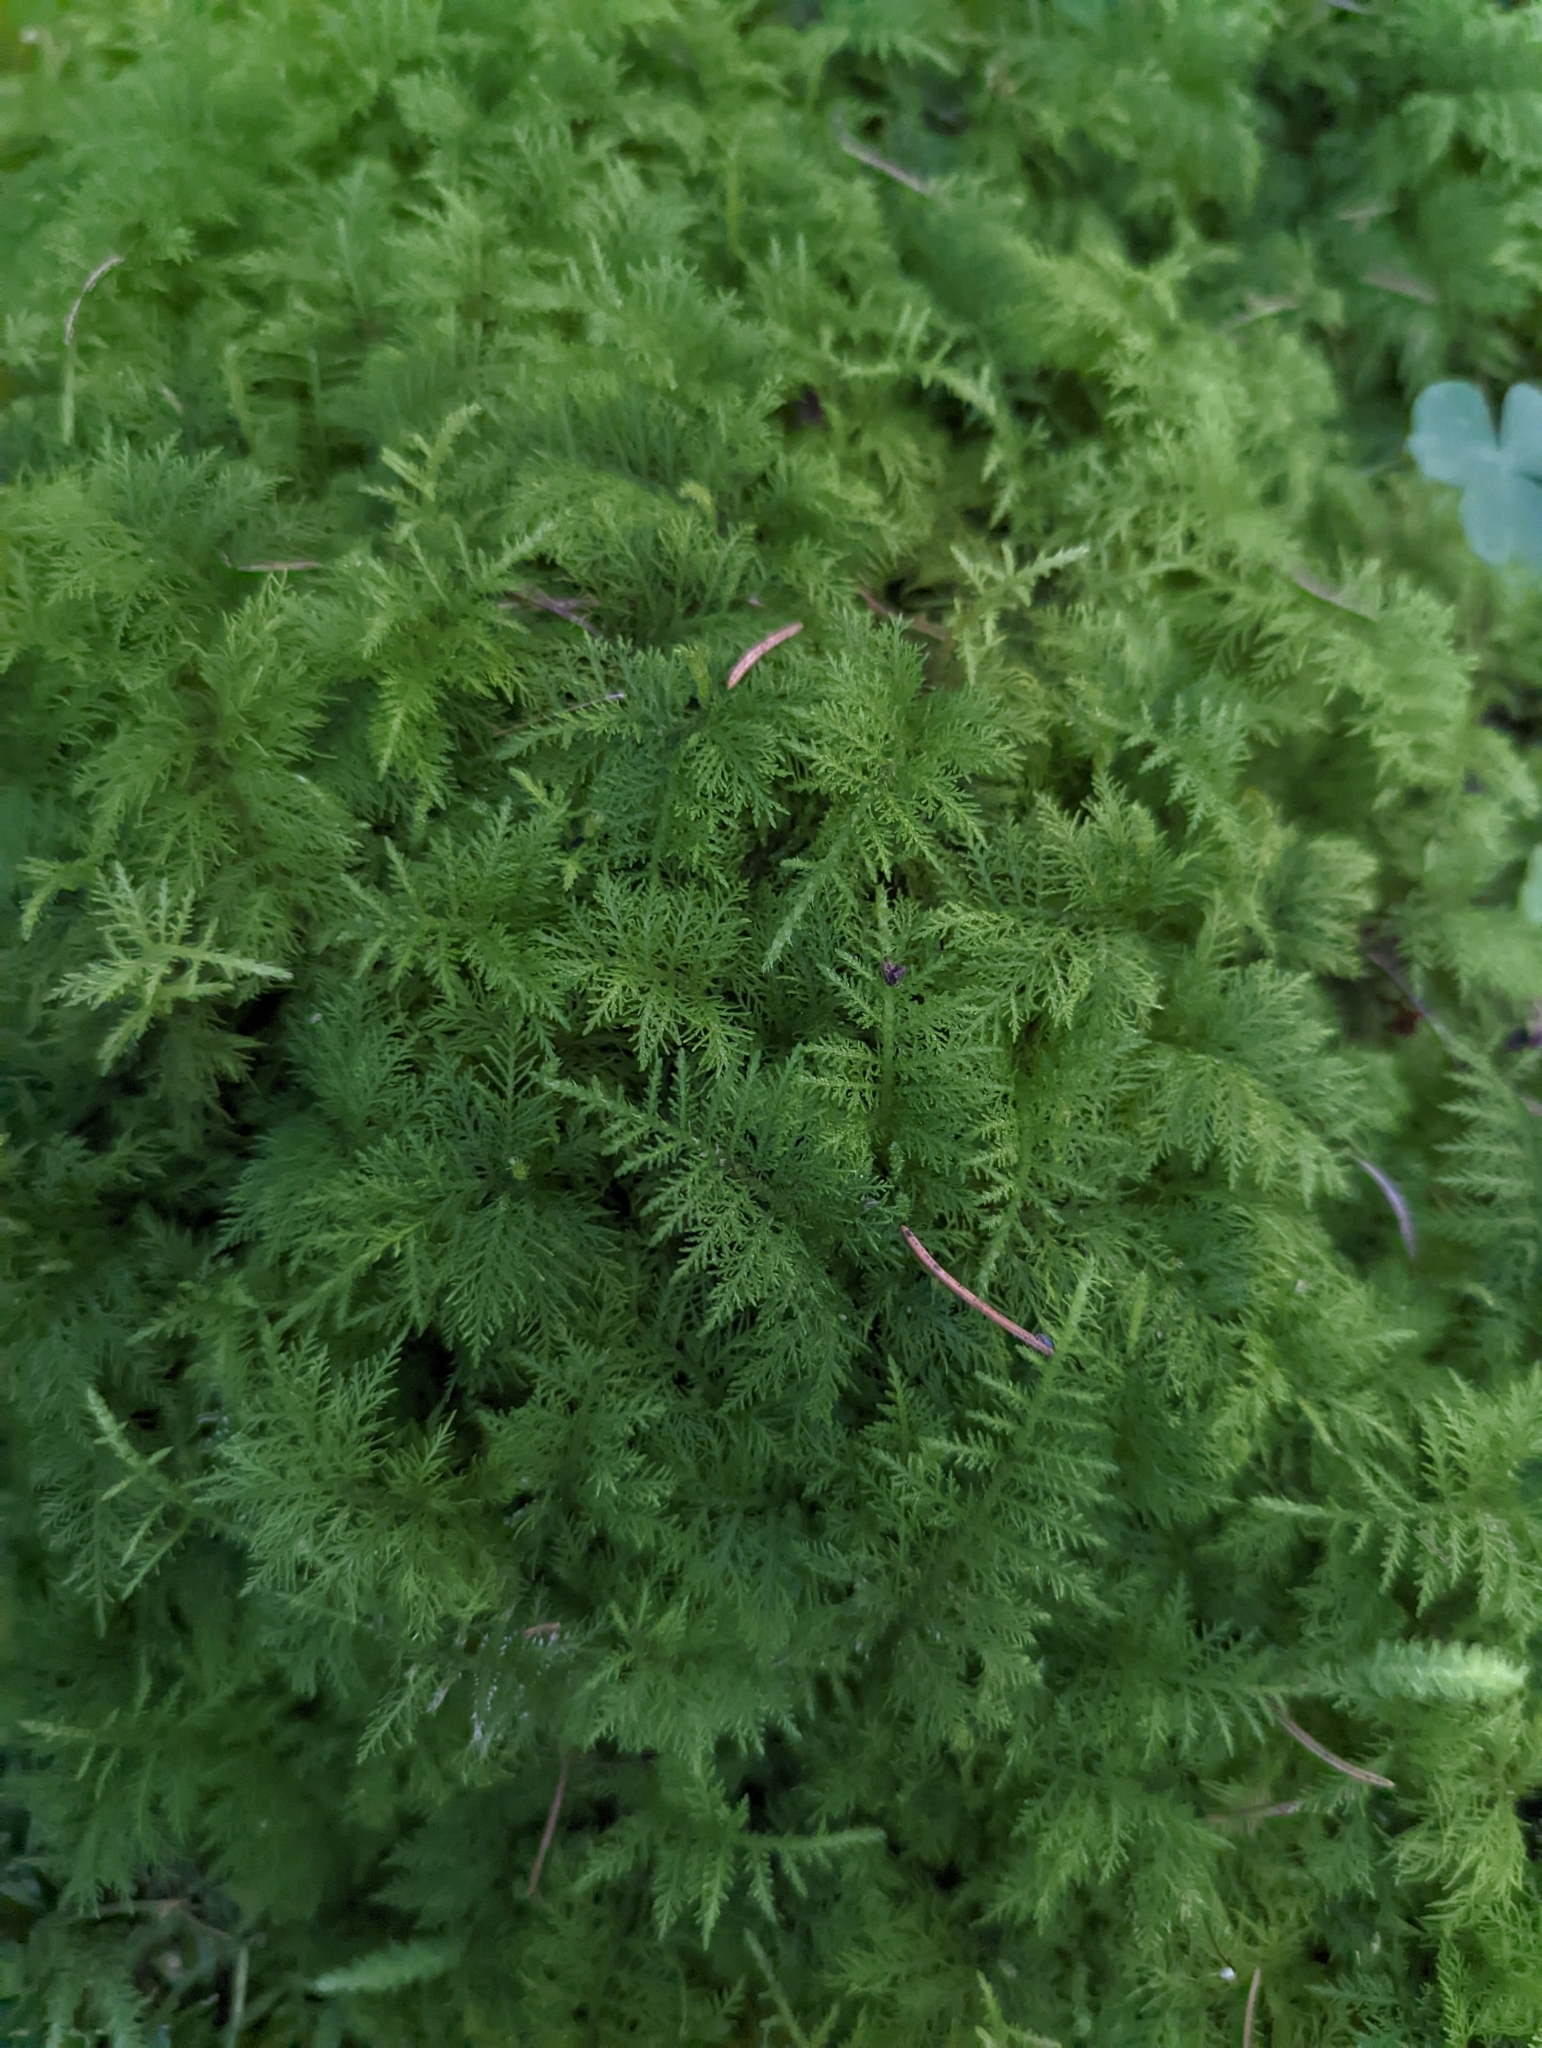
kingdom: Plantae
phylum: Bryophyta
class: Bryopsida
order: Hypnales
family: Thuidiaceae
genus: Thuidium
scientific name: Thuidium tamariscinum
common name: Common tamarisk-moss
